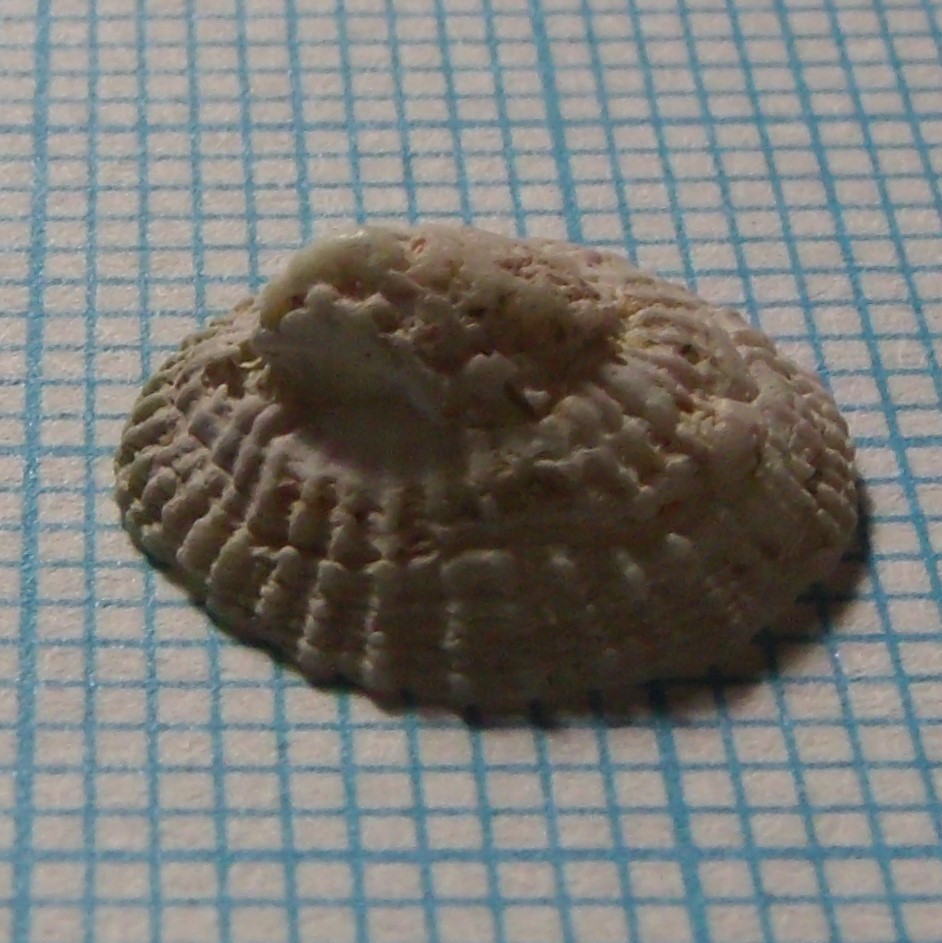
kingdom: Animalia
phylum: Mollusca
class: Gastropoda
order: Ellobiida
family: Trimusculidae
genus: Trimusculus
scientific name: Trimusculus conicus
